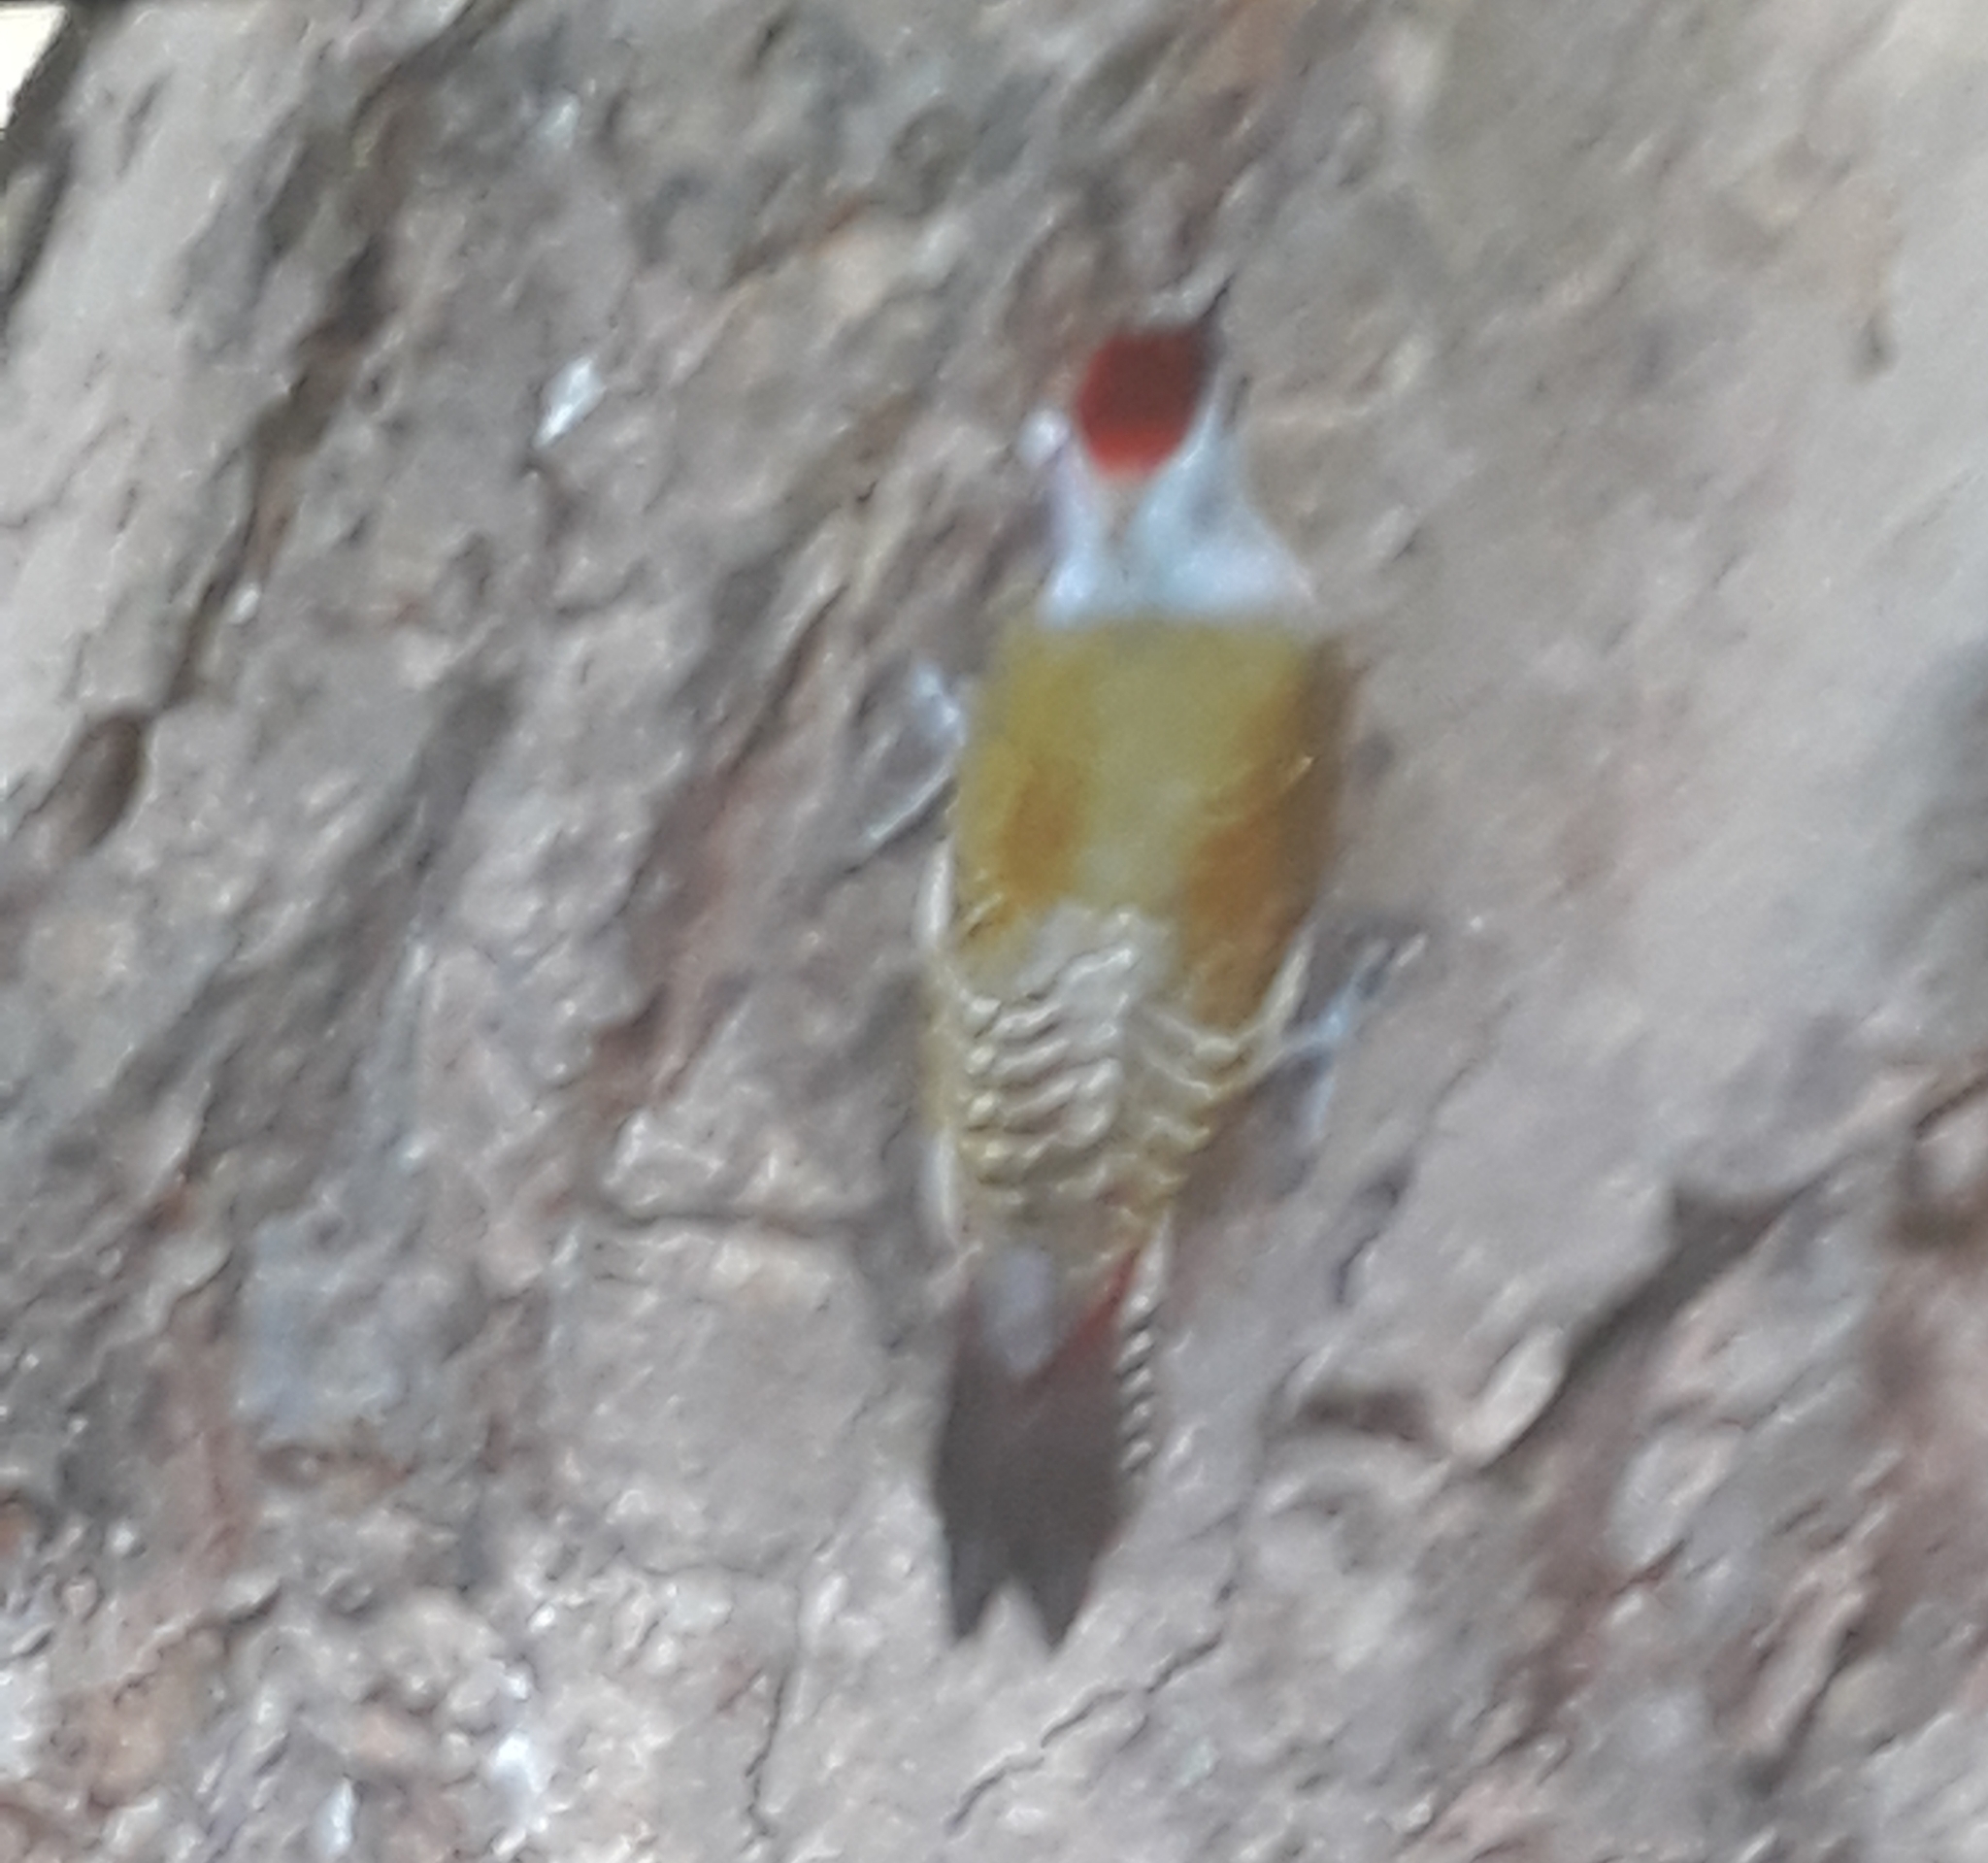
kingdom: Animalia
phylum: Chordata
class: Aves
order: Piciformes
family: Picidae
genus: Dendropicos
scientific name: Dendropicos goertae
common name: African grey woodpecker
